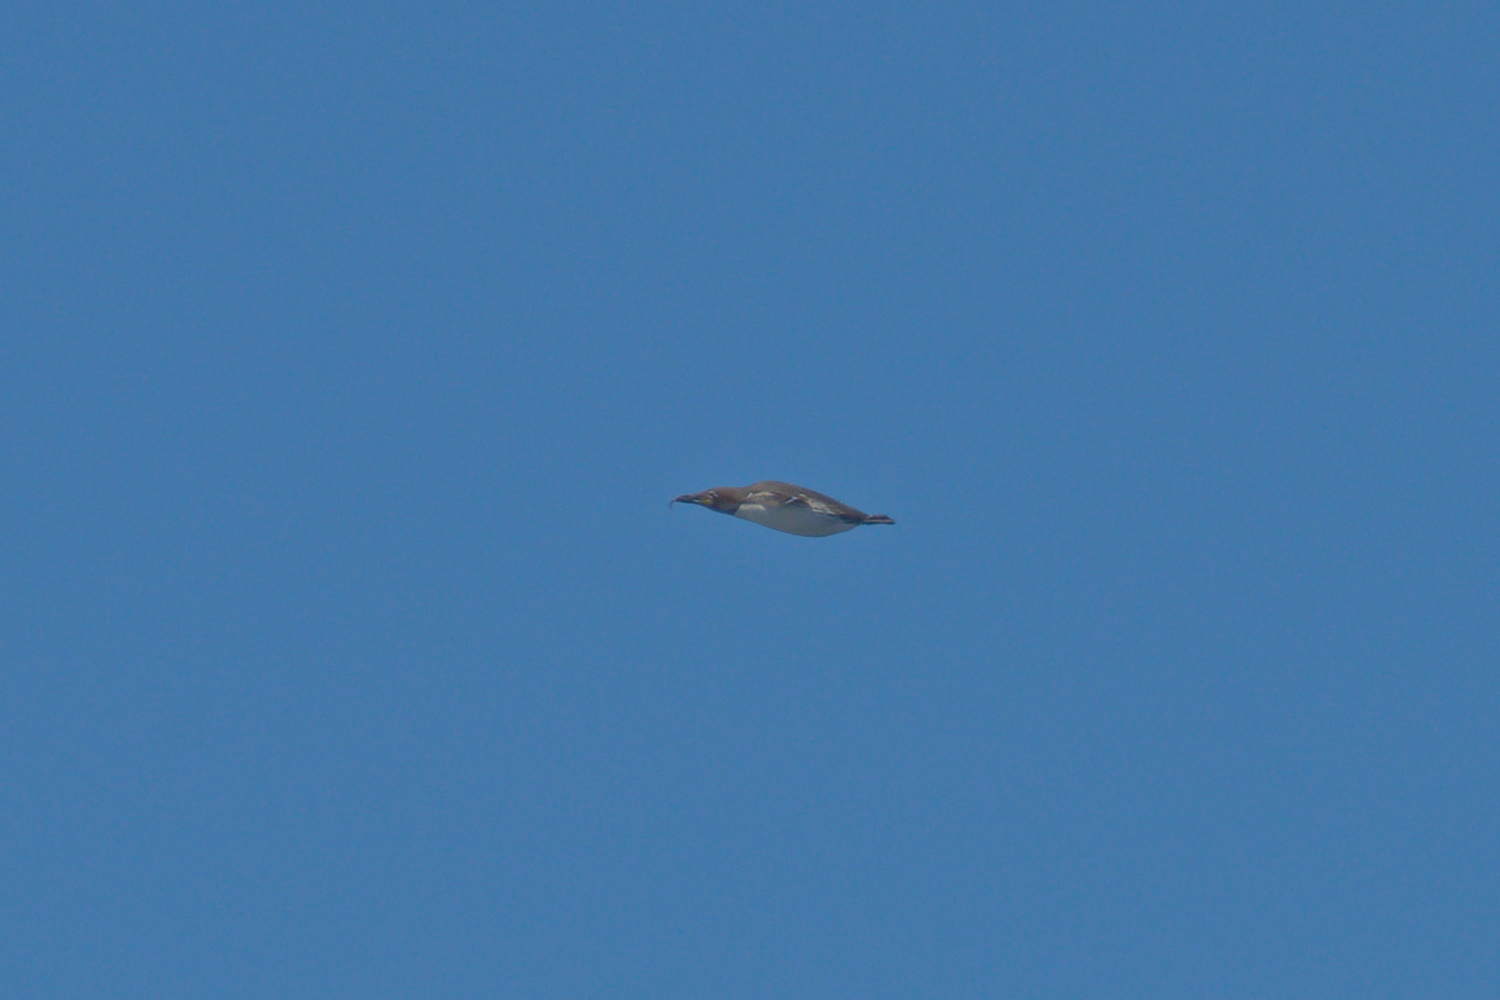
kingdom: Animalia
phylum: Chordata
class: Aves
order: Charadriiformes
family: Alcidae
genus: Uria
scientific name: Uria aalge
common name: Common murre
